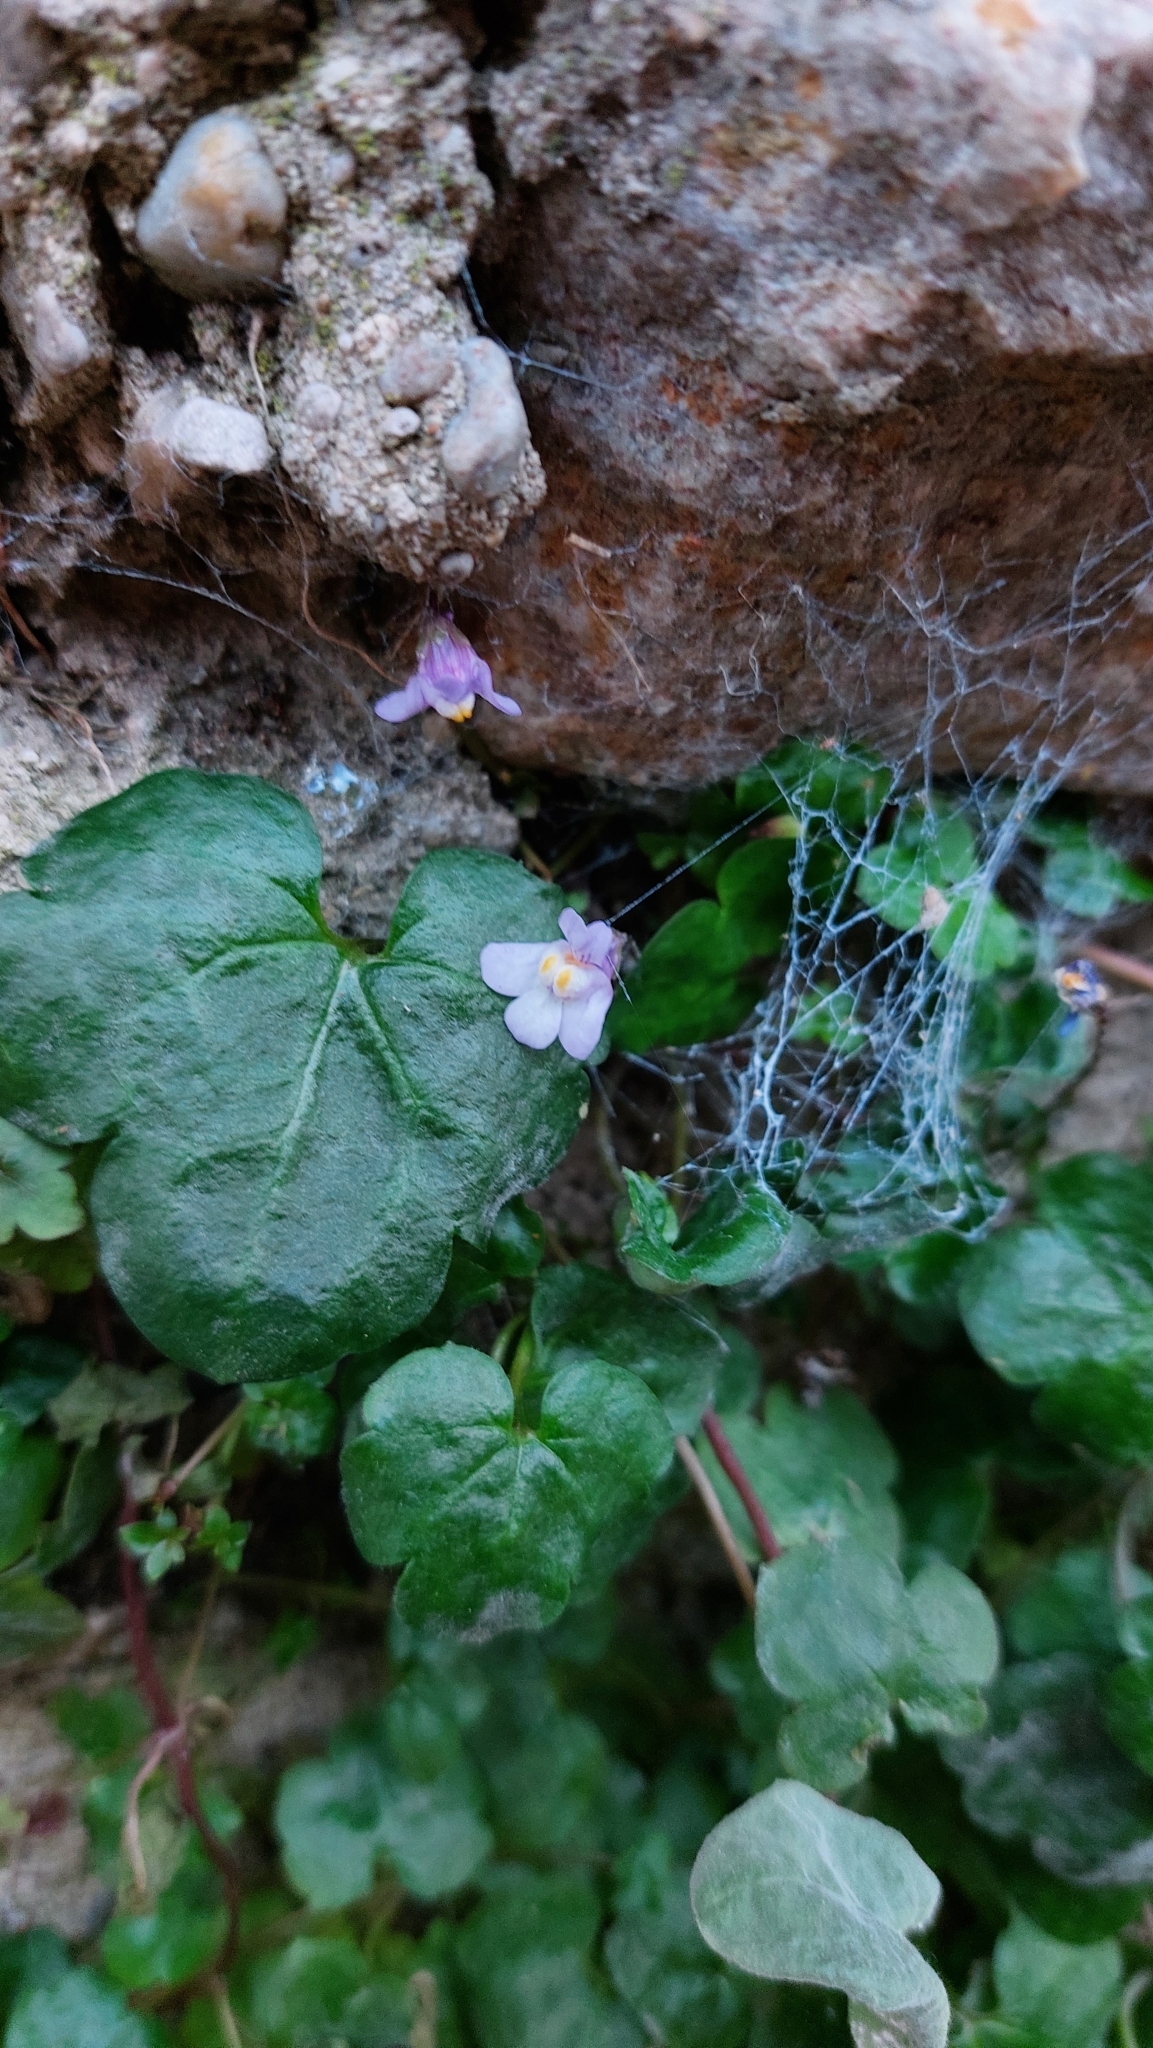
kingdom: Plantae
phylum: Tracheophyta
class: Magnoliopsida
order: Lamiales
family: Plantaginaceae
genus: Cymbalaria
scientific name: Cymbalaria muralis
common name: Ivy-leaved toadflax
